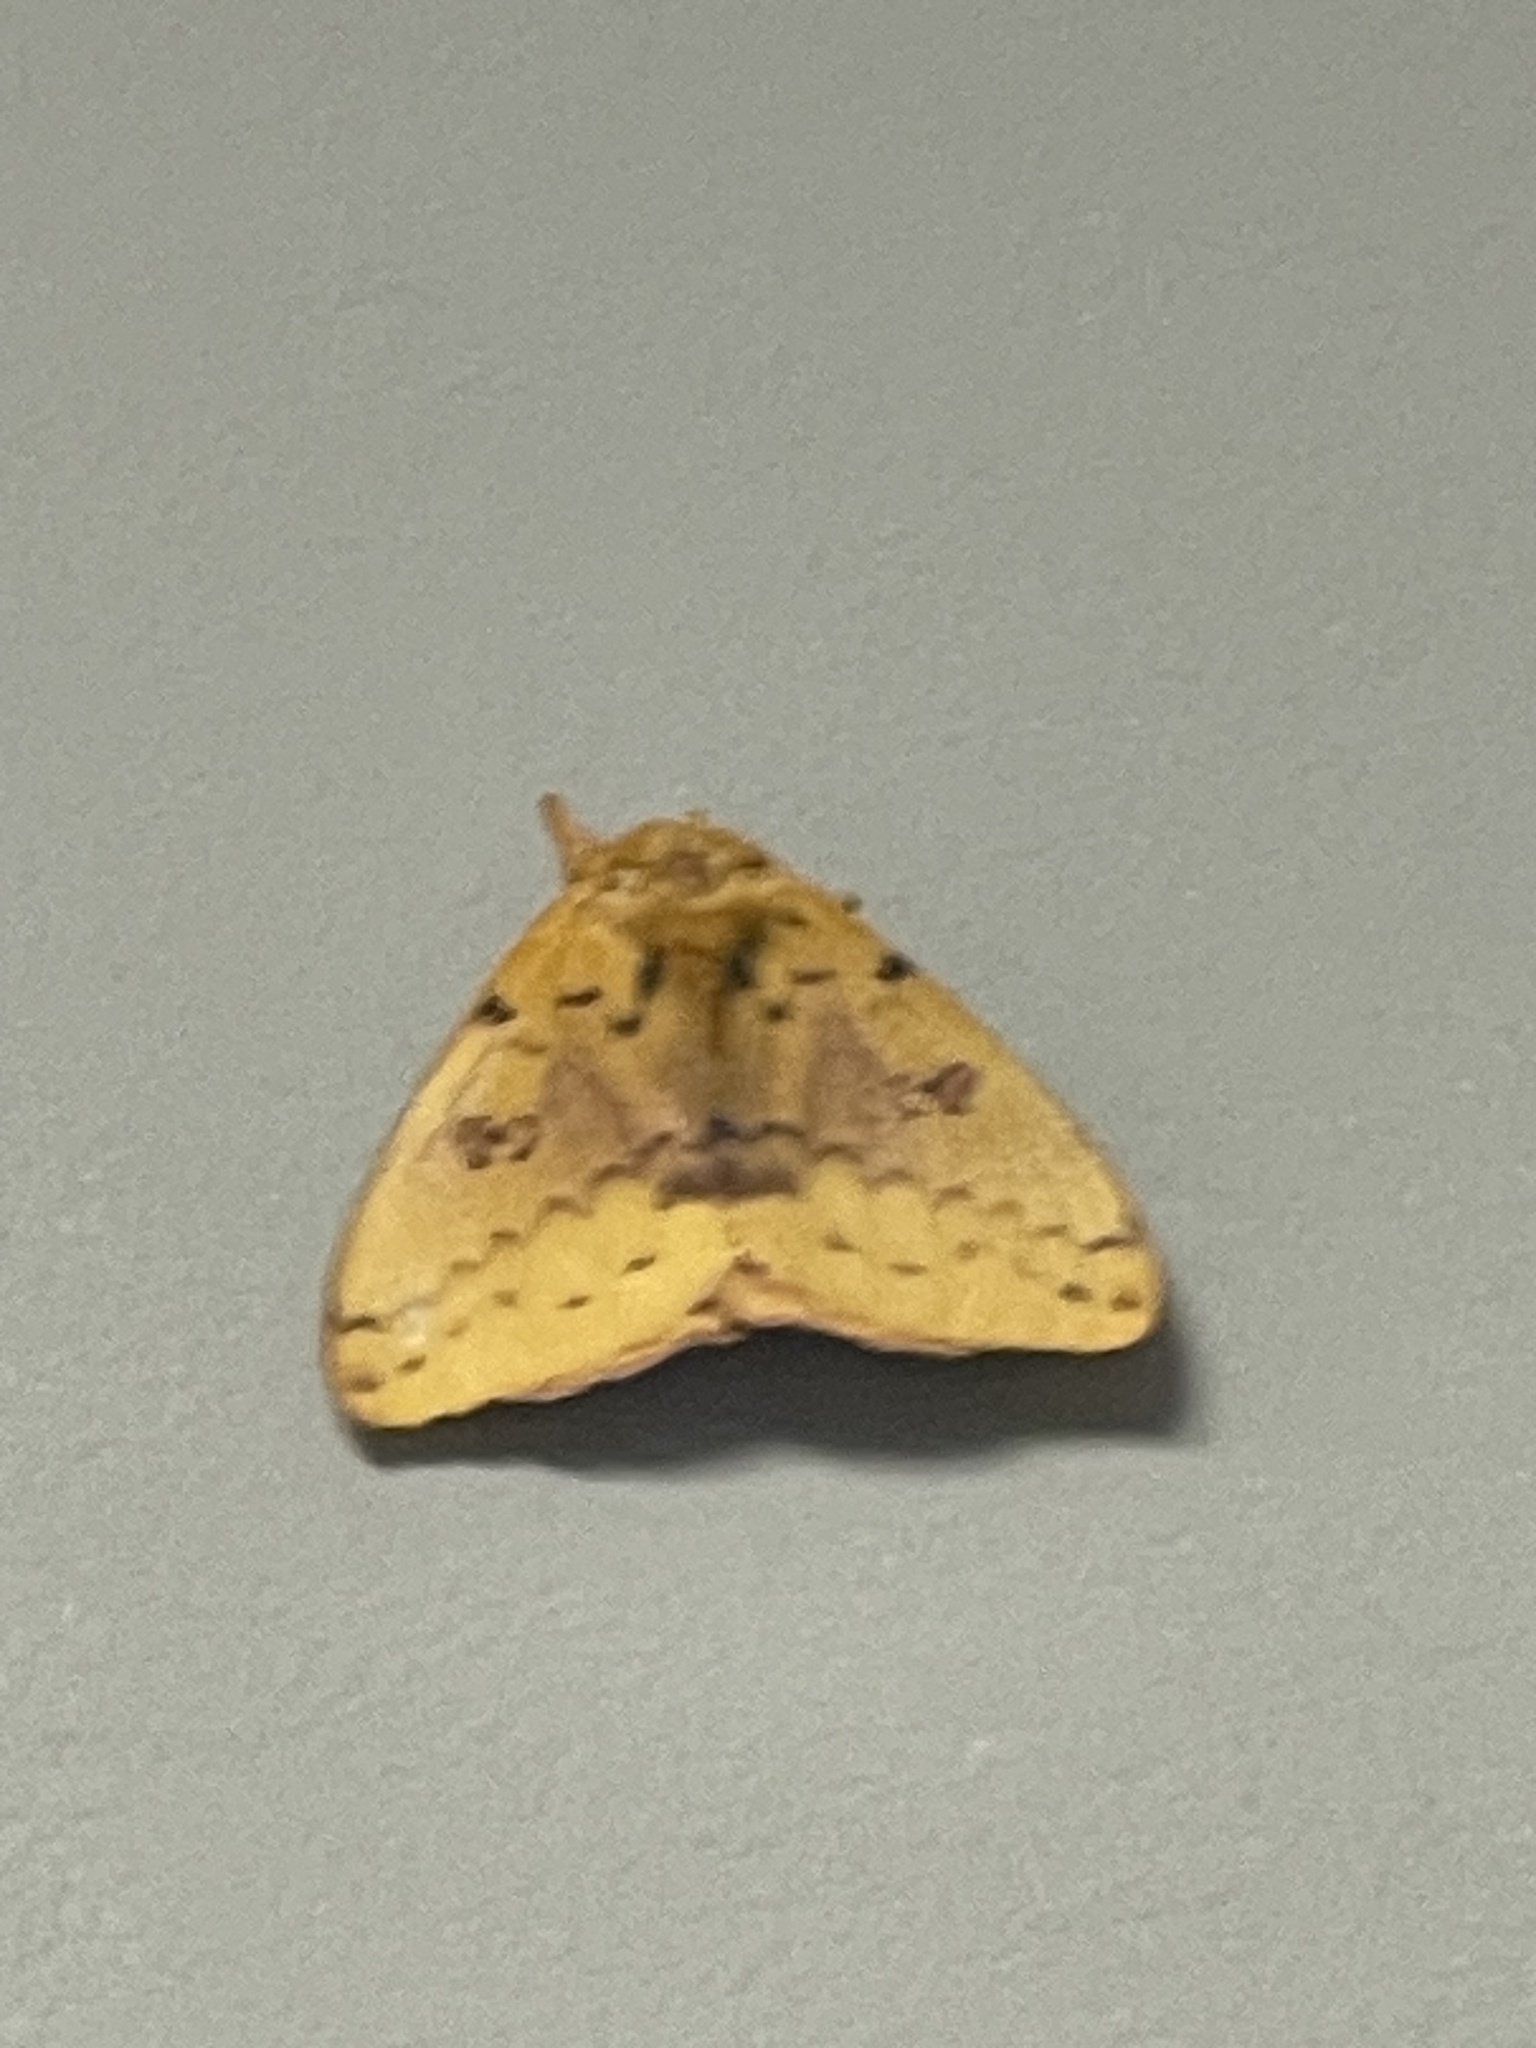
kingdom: Animalia
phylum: Arthropoda
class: Insecta
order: Lepidoptera
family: Saturniidae
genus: Automeris
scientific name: Automeris io
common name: Io moth
